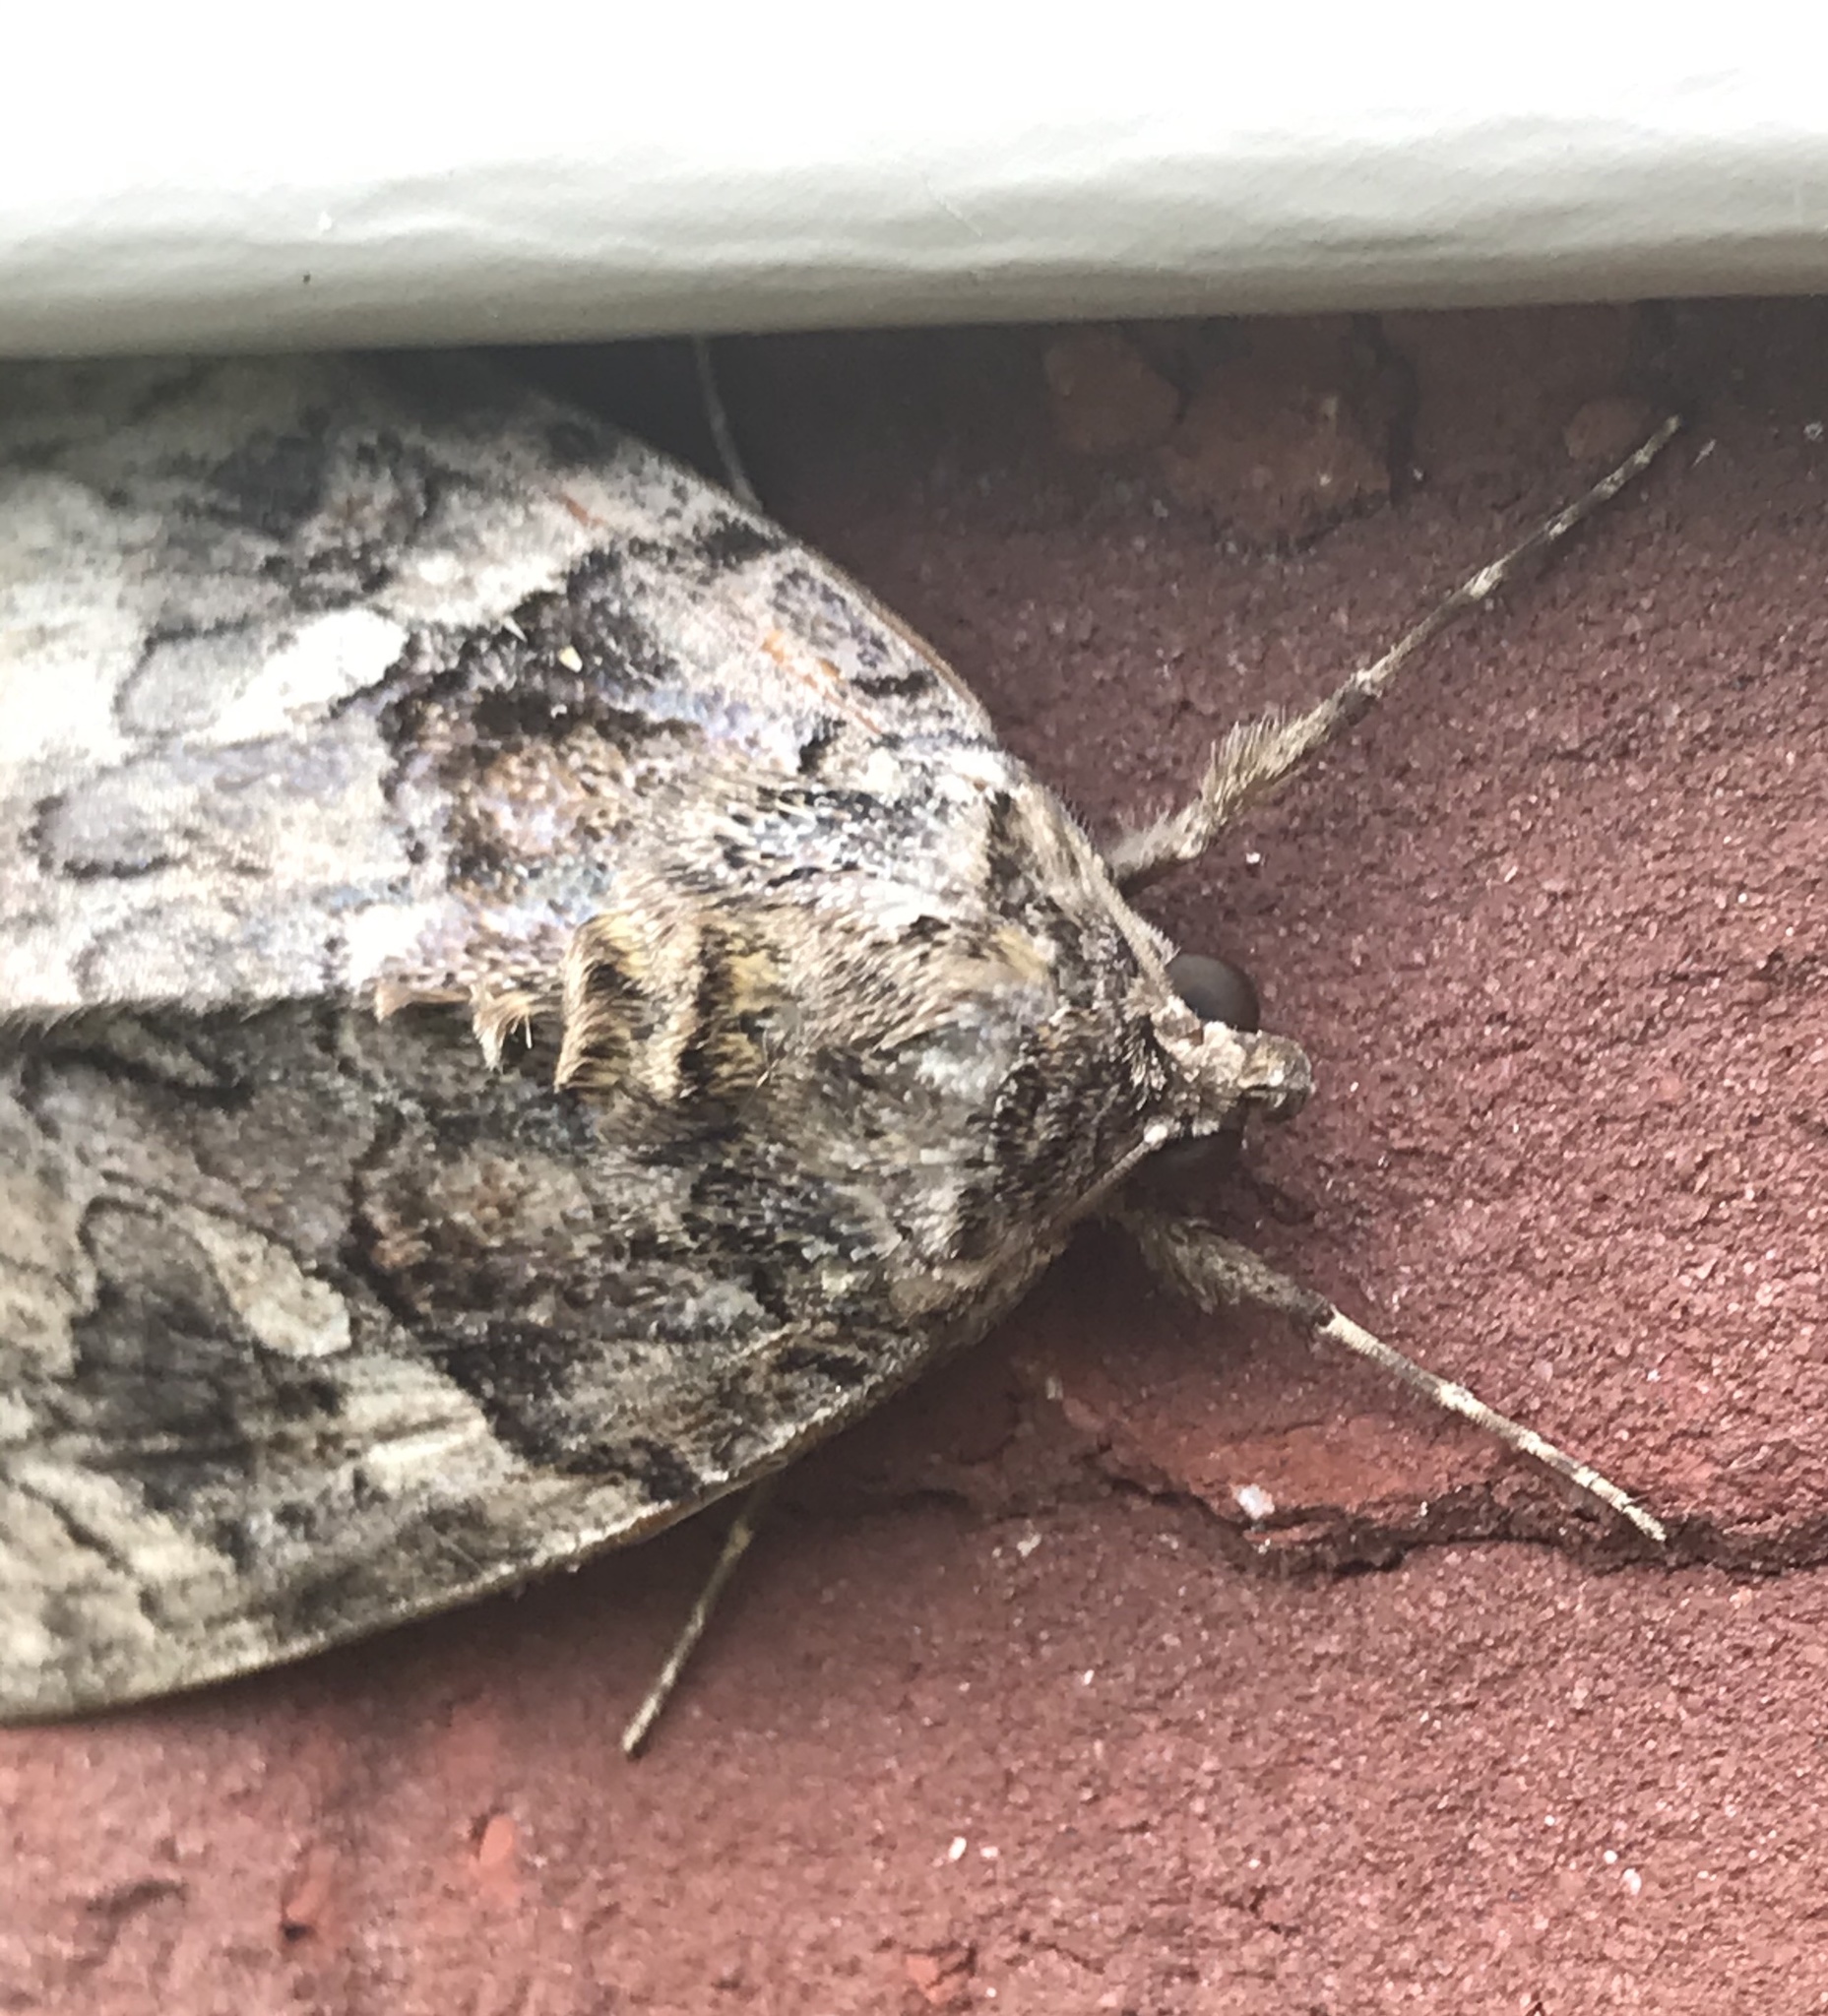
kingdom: Animalia
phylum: Arthropoda
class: Insecta
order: Lepidoptera
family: Erebidae
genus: Catocala
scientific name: Catocala piatrix
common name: The penitent underwing
